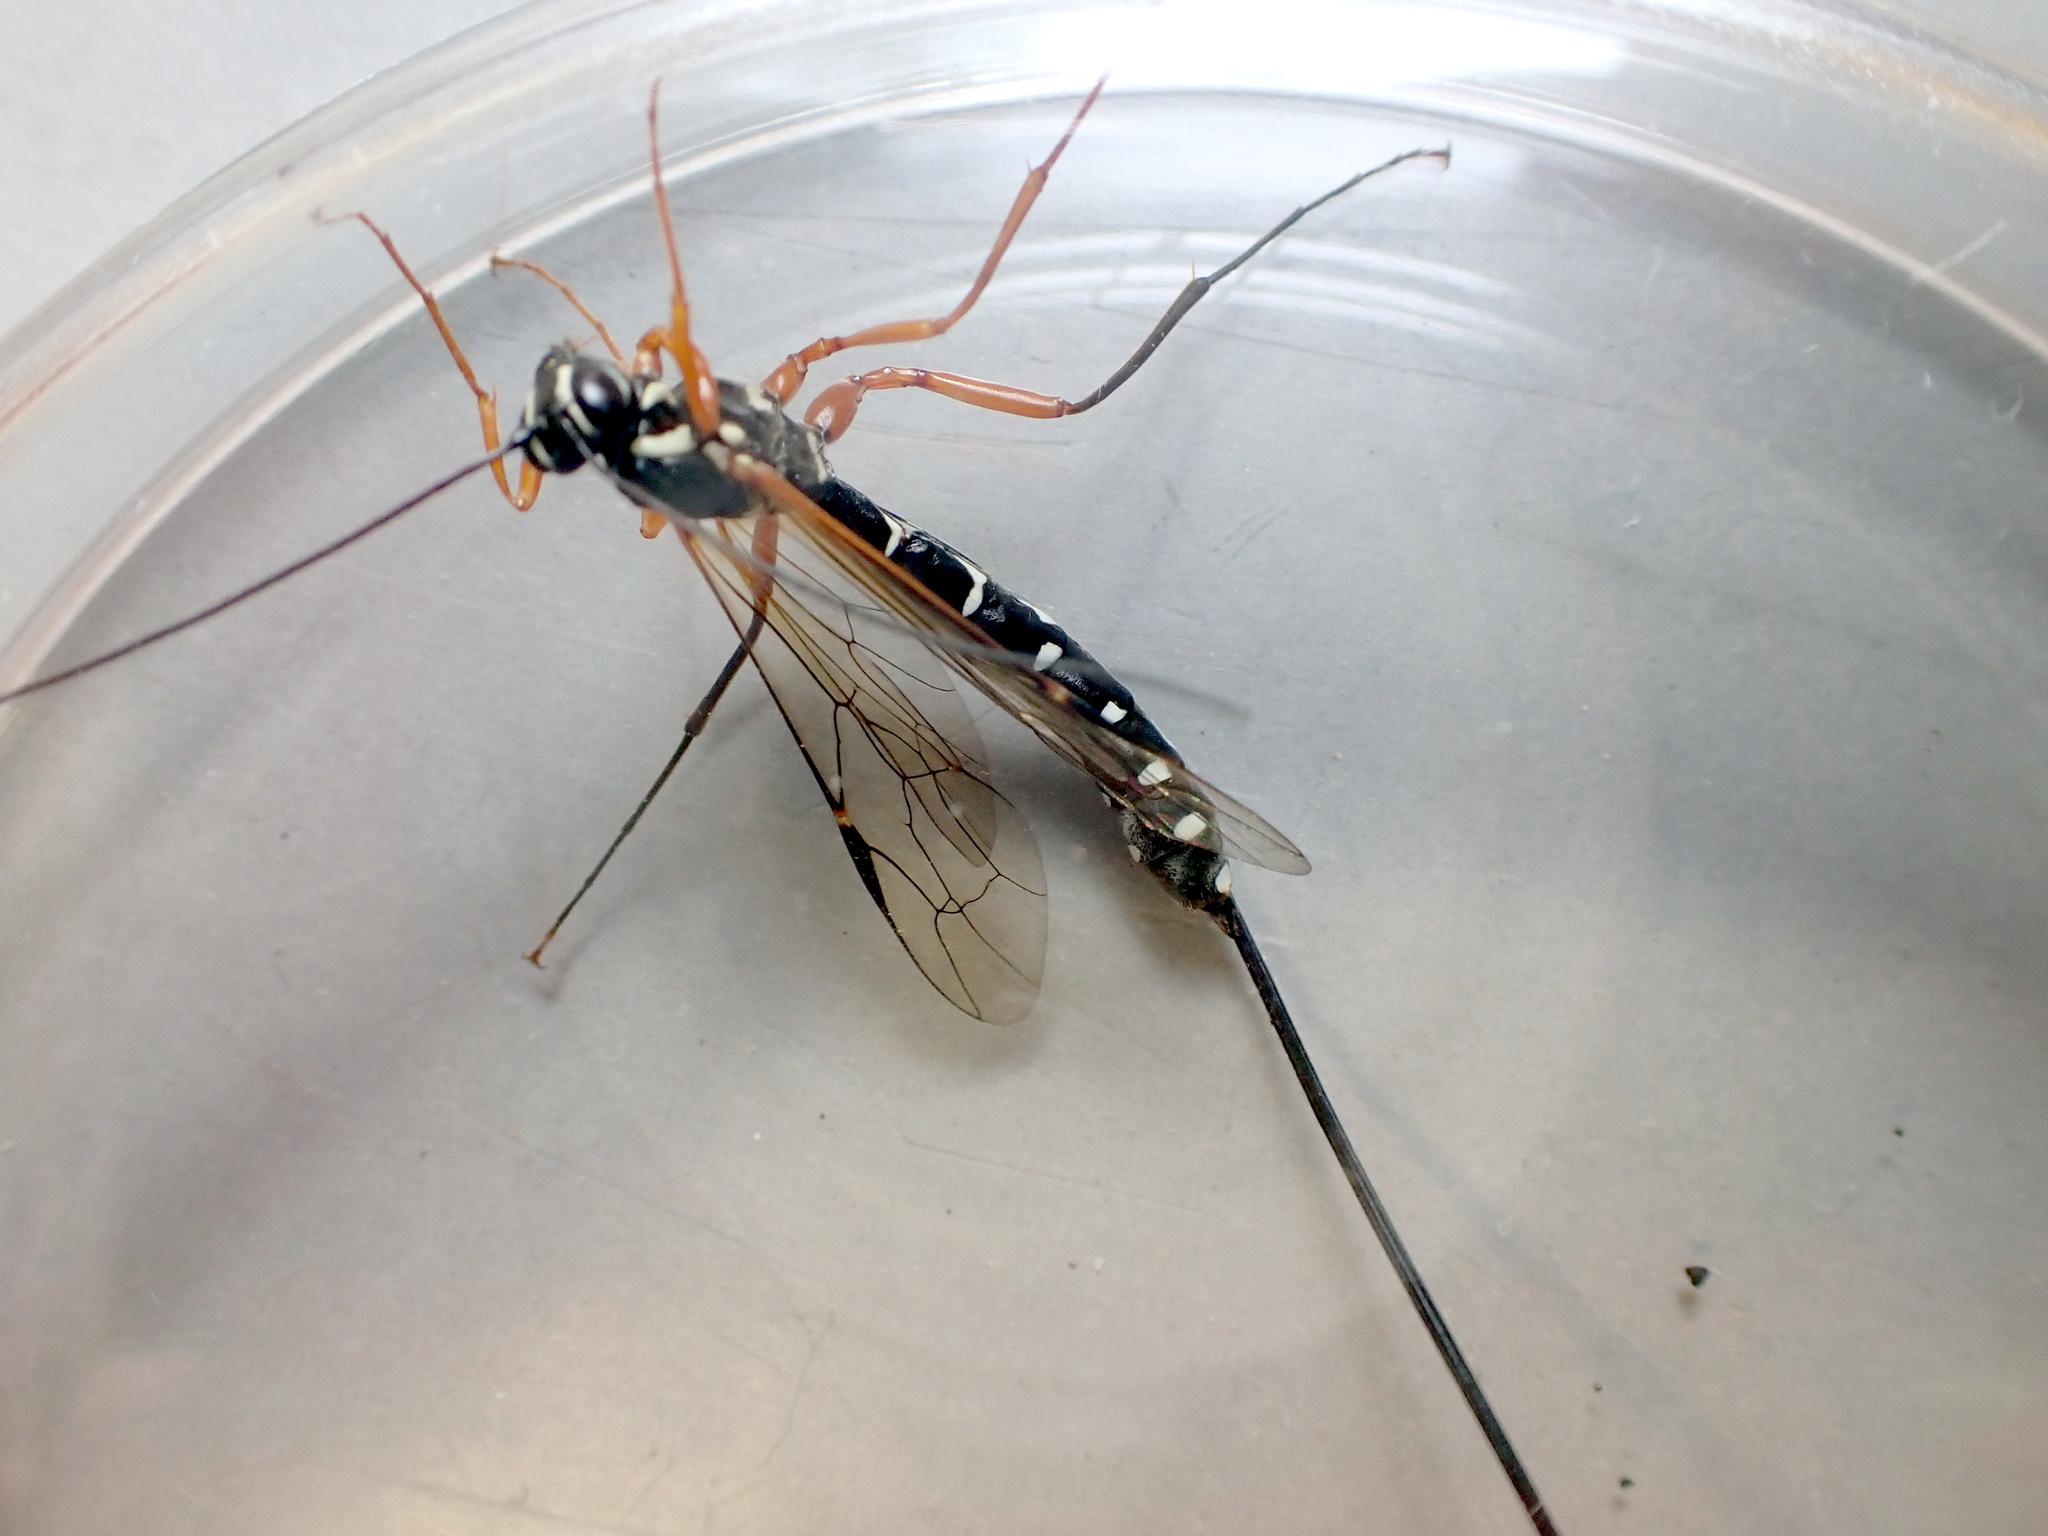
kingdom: Animalia
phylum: Arthropoda
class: Insecta
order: Hymenoptera
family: Ichneumonidae
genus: Rhyssa
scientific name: Rhyssa persuasoria
